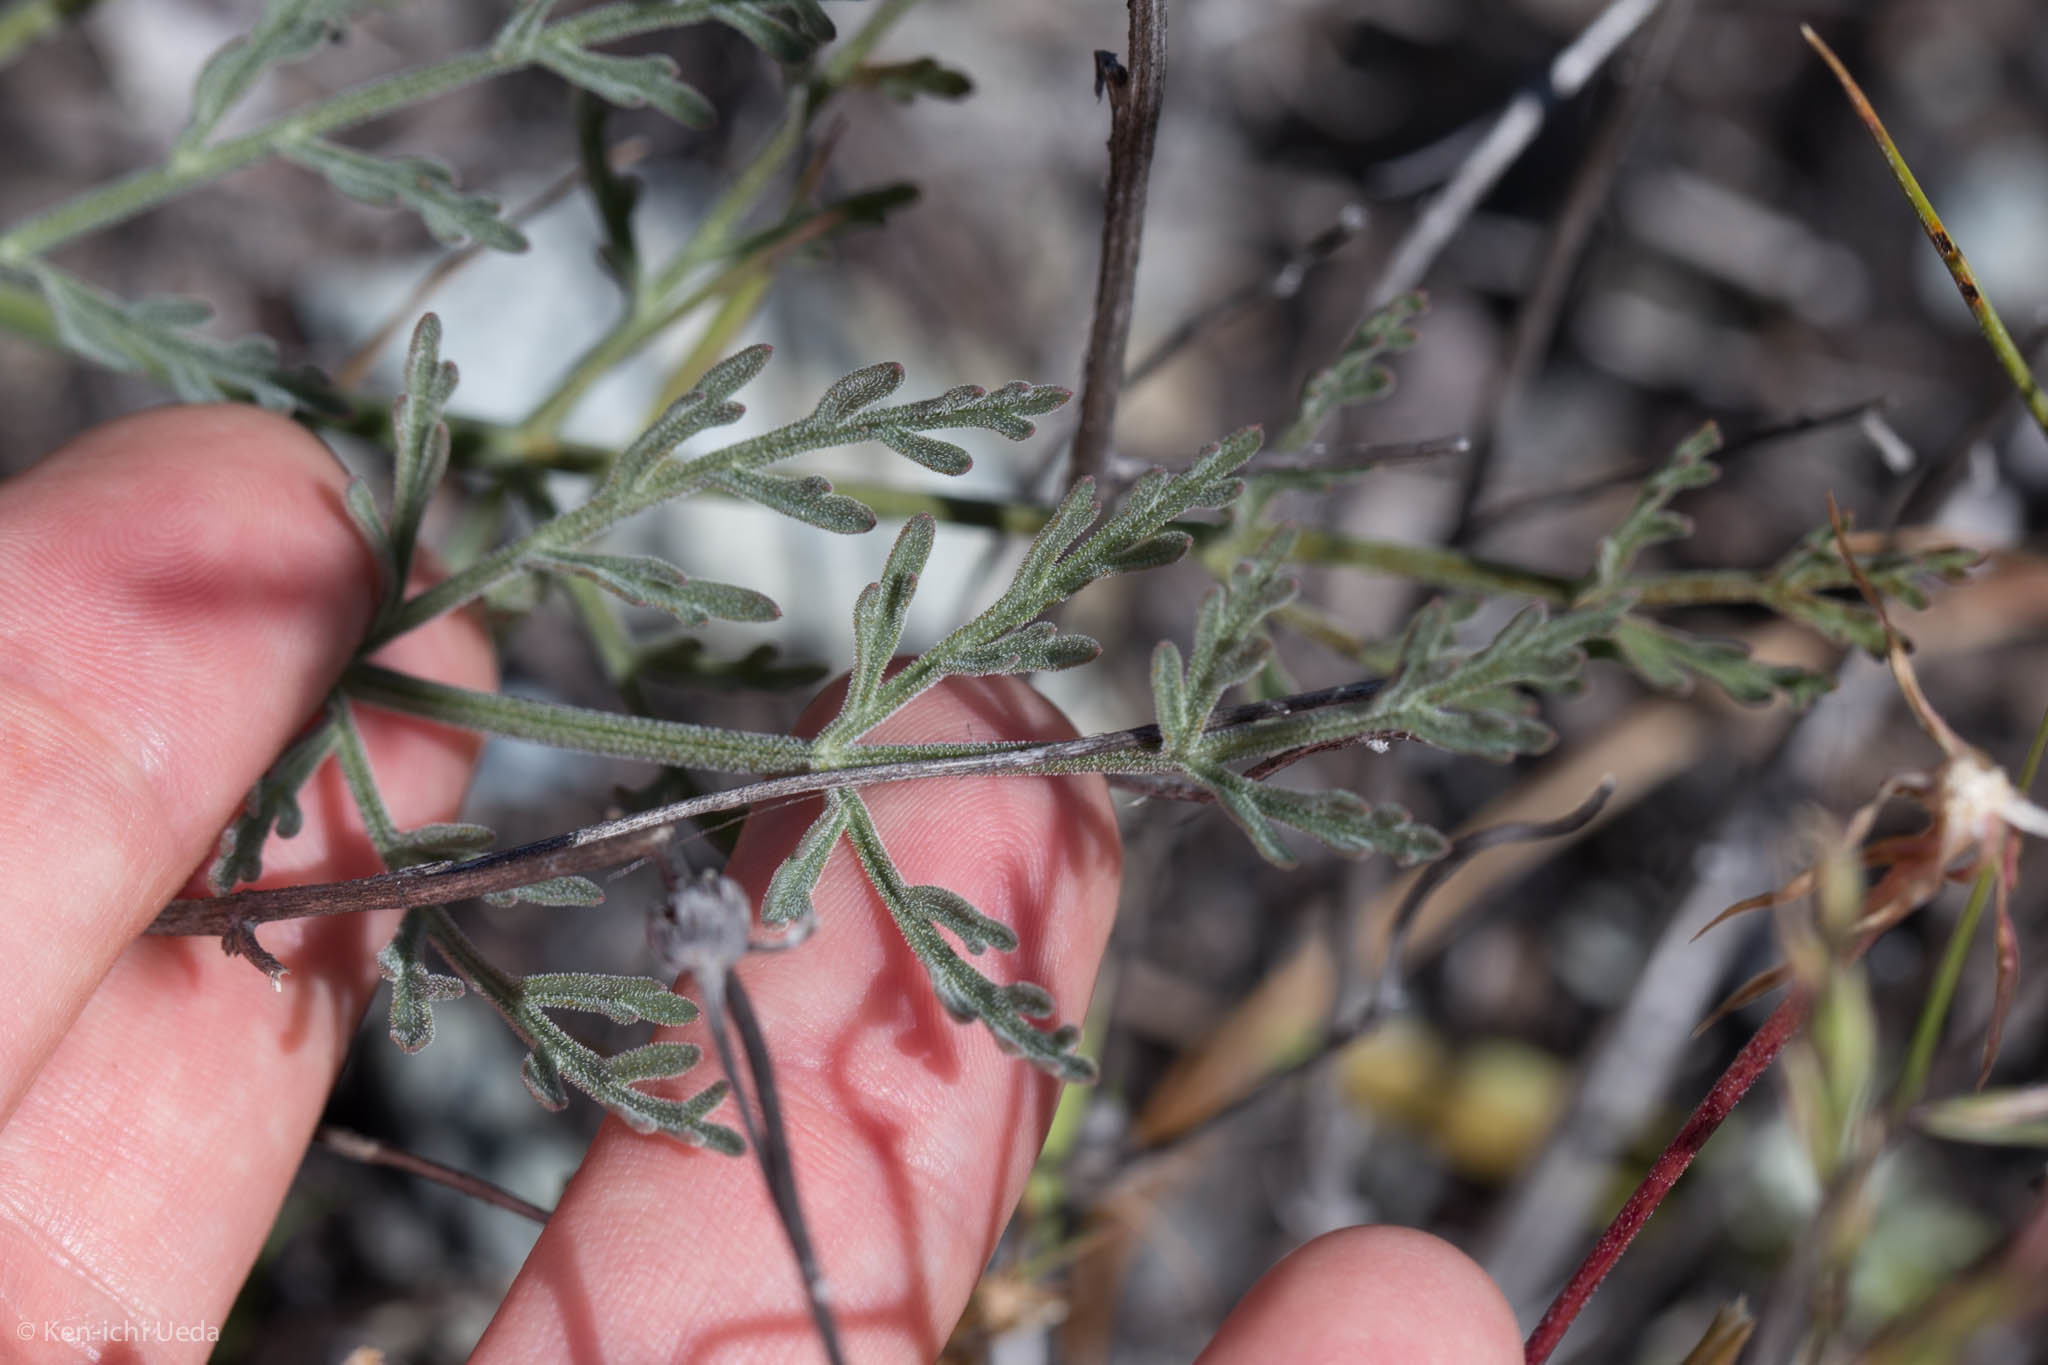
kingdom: Plantae
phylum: Tracheophyta
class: Magnoliopsida
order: Apiales
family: Apiaceae
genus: Lomatium
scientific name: Lomatium hooveri
